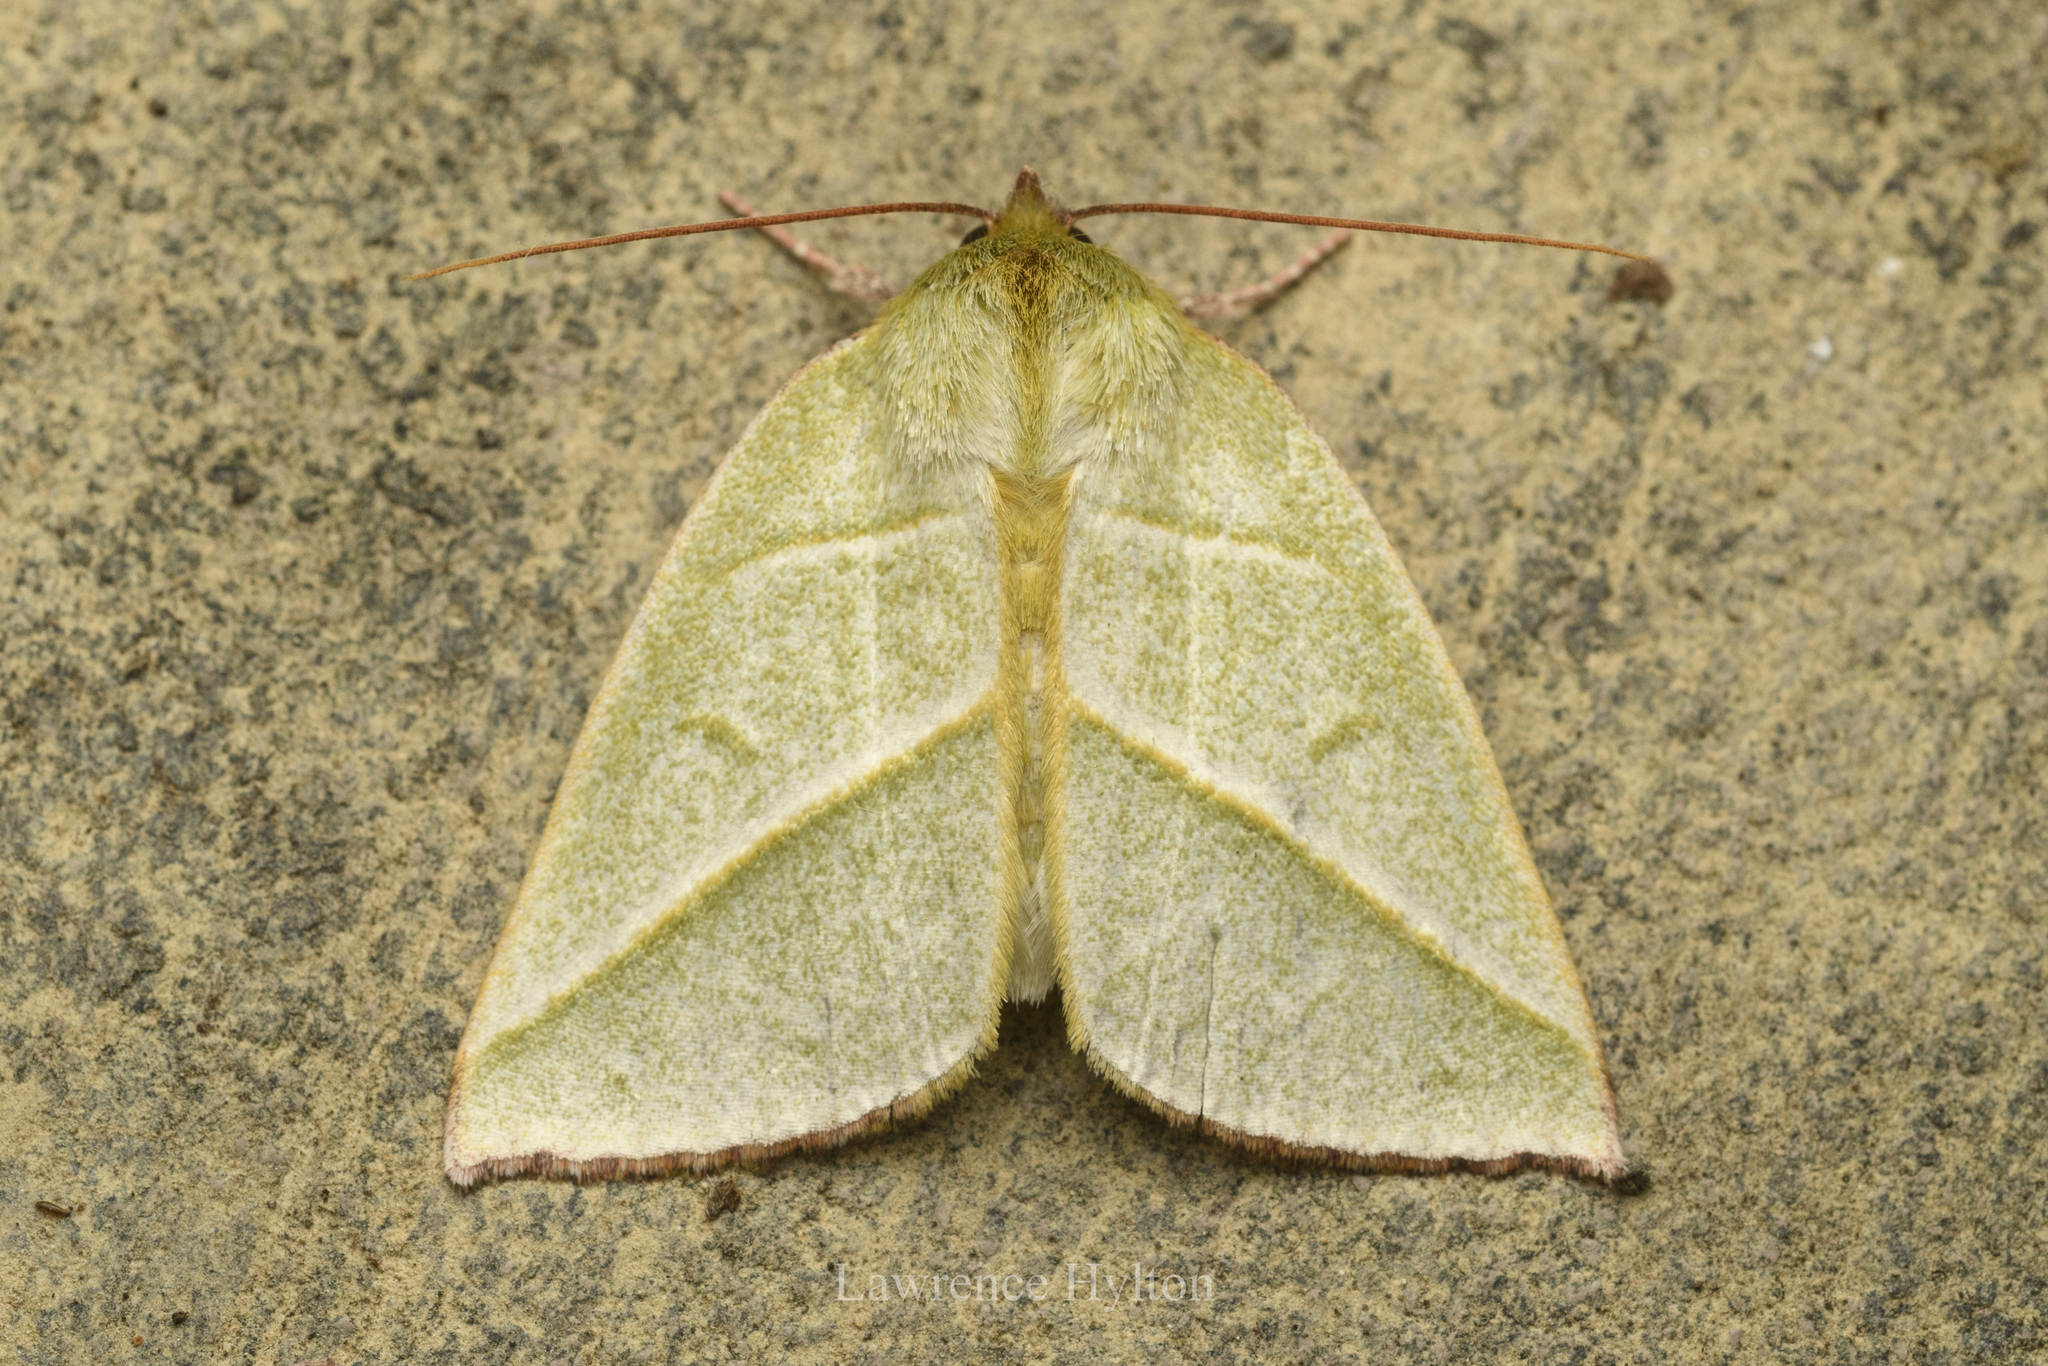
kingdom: Animalia
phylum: Arthropoda
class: Insecta
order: Lepidoptera
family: Nolidae
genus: Hylophilodes
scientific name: Hylophilodes tsukusensis
